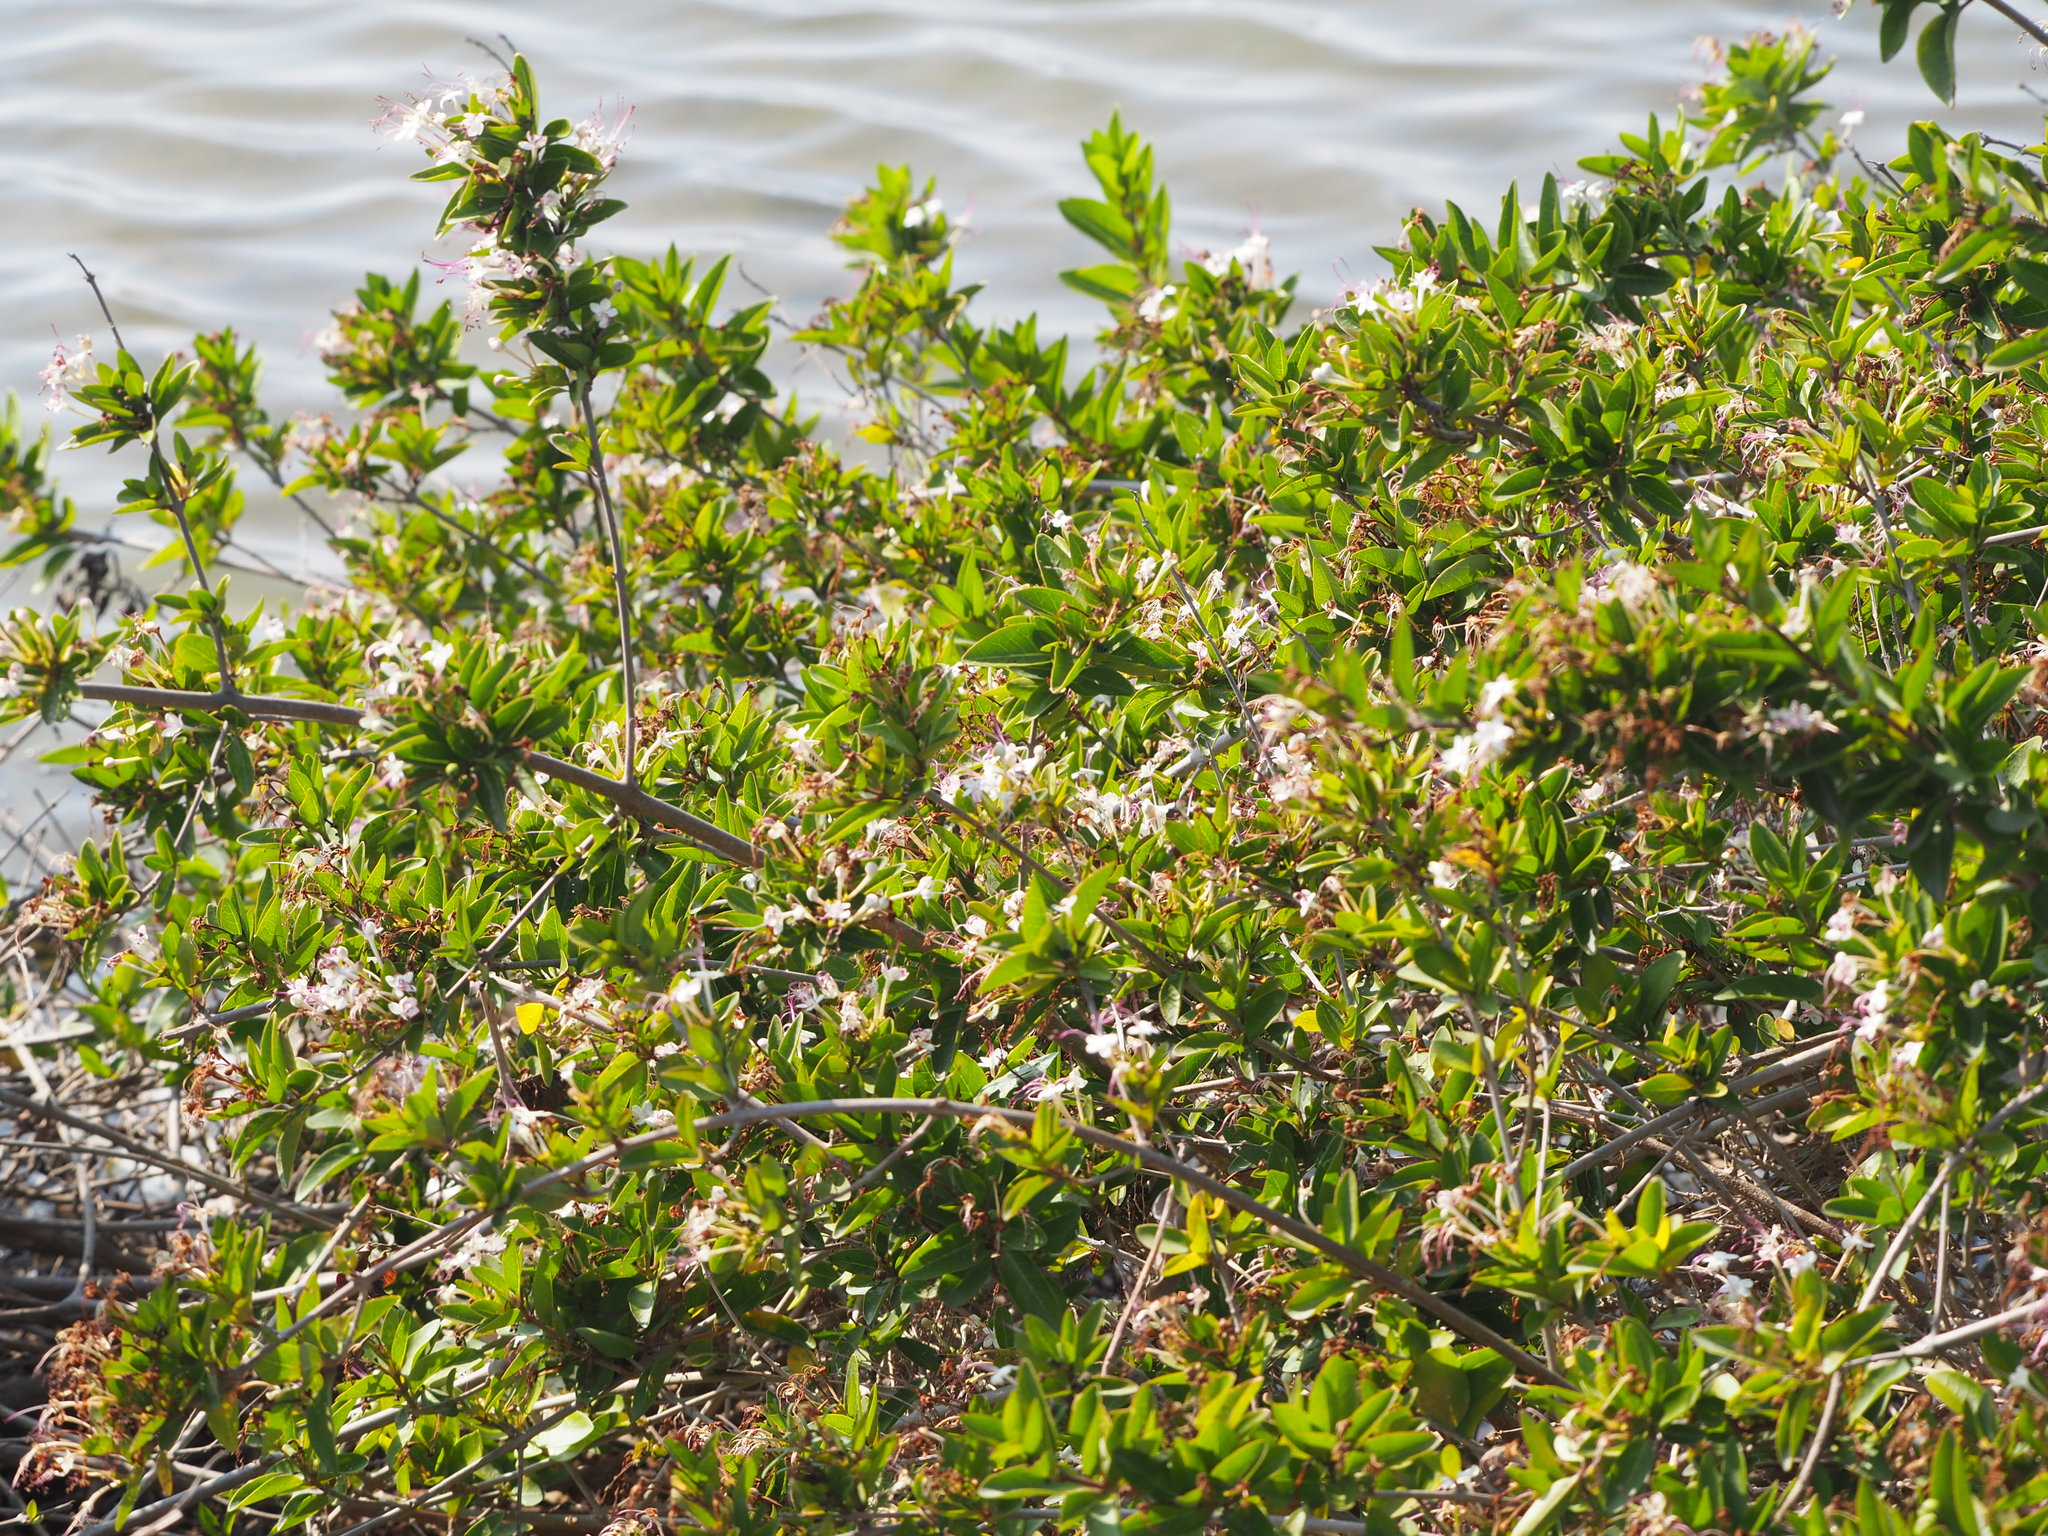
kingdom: Plantae
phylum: Tracheophyta
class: Magnoliopsida
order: Lamiales
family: Lamiaceae
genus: Volkameria
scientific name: Volkameria inermis
